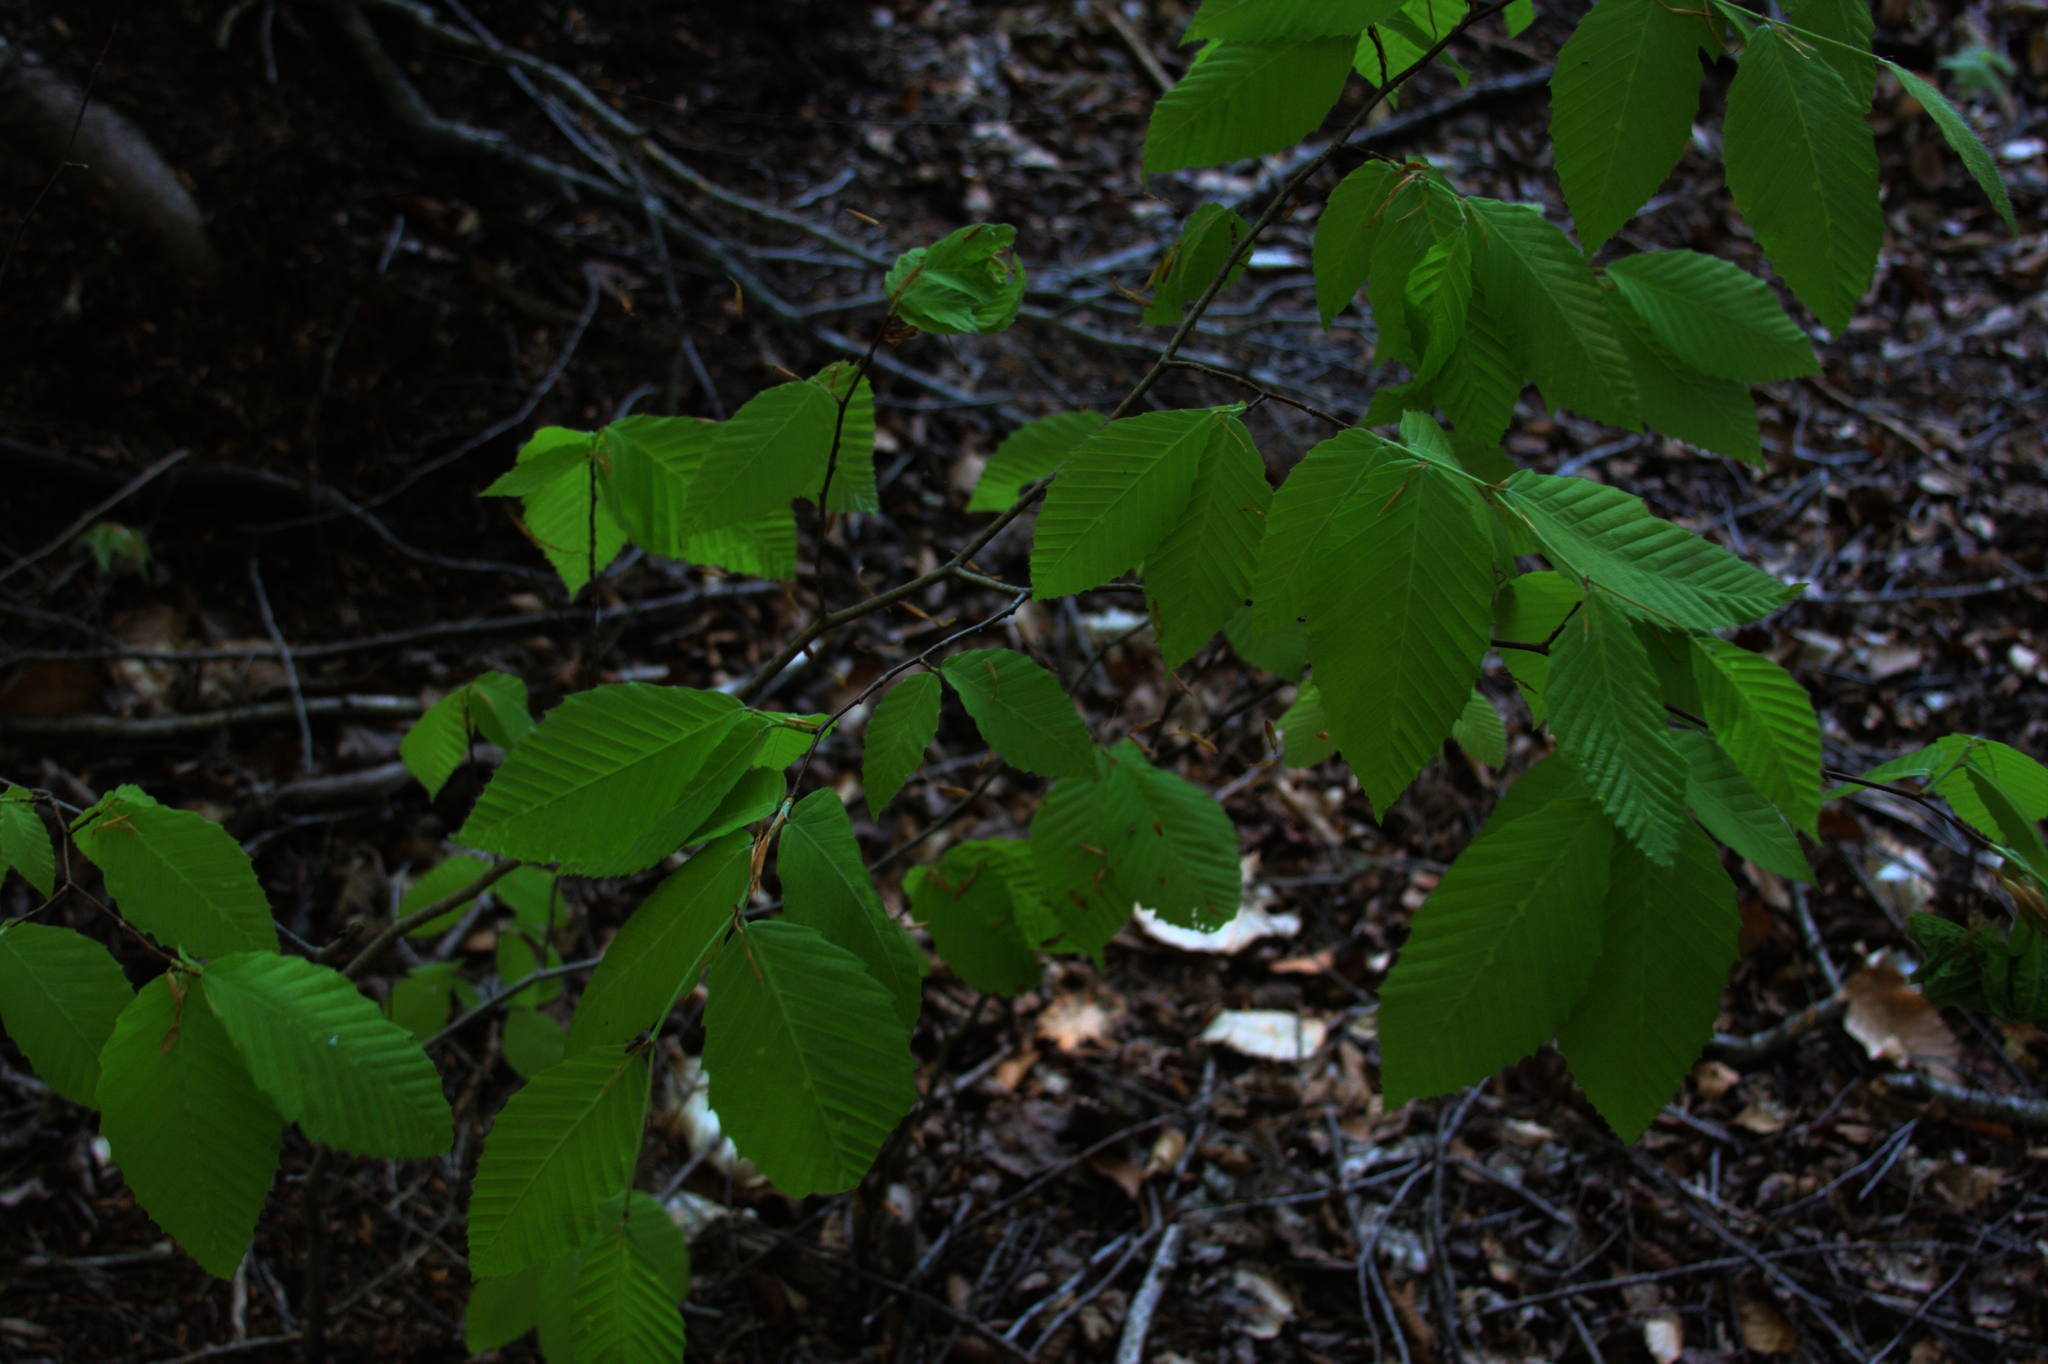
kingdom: Plantae
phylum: Tracheophyta
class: Magnoliopsida
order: Fagales
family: Fagaceae
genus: Fagus
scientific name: Fagus grandifolia
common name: American beech
